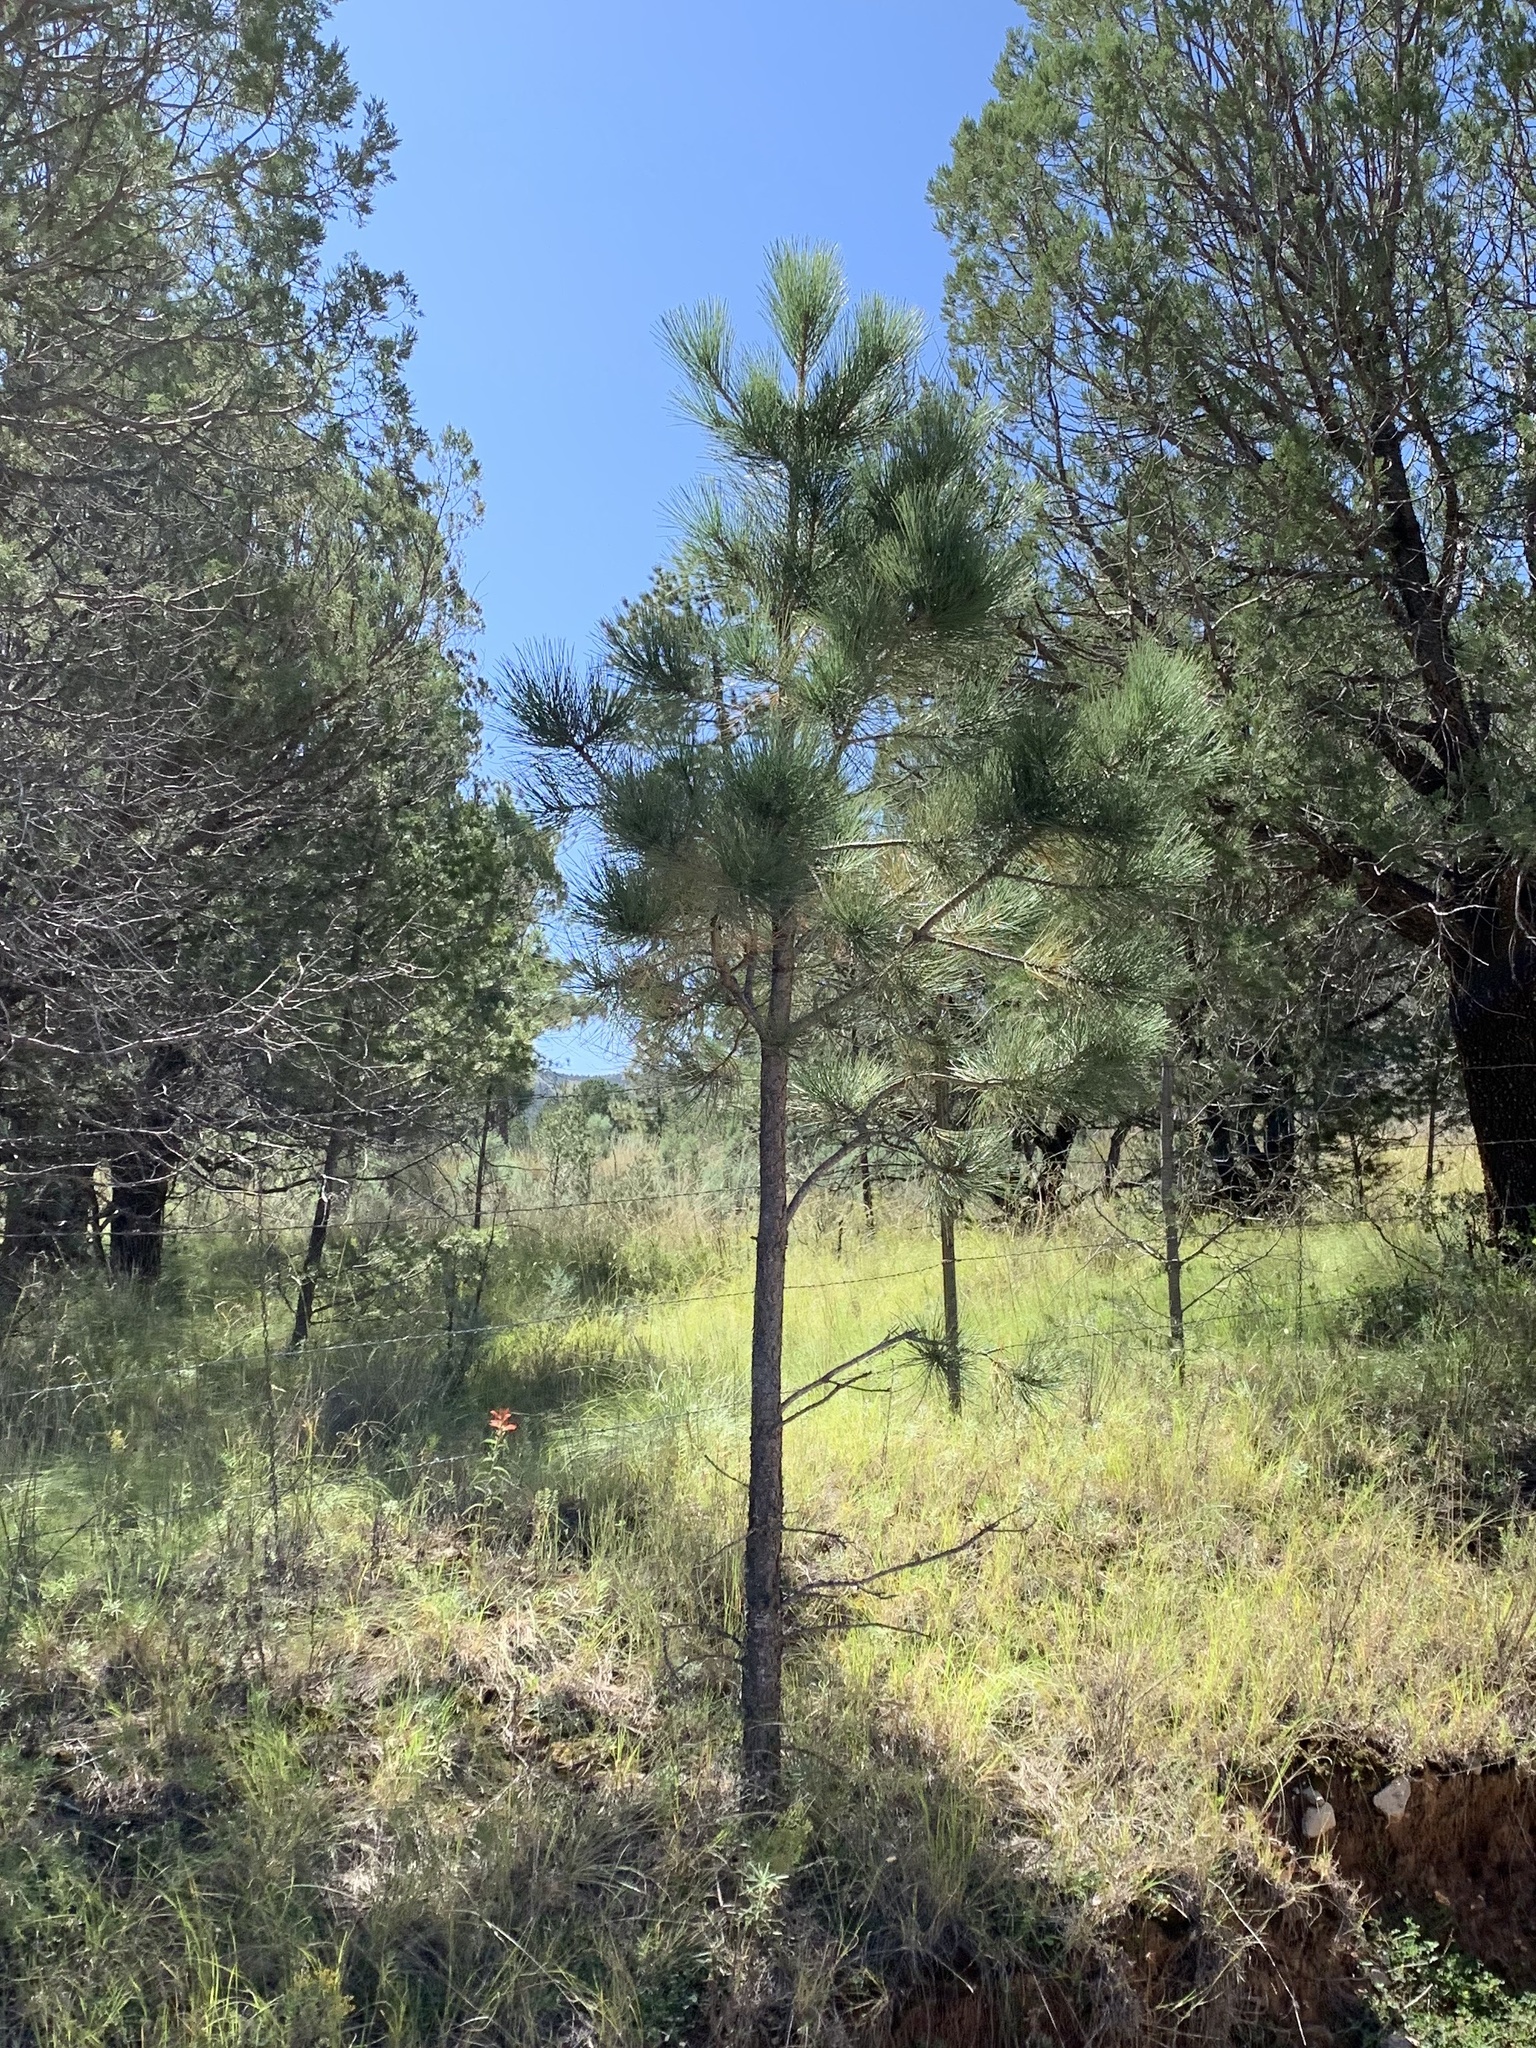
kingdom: Plantae
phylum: Tracheophyta
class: Pinopsida
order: Pinales
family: Pinaceae
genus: Pinus
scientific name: Pinus ponderosa
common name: Western yellow-pine
